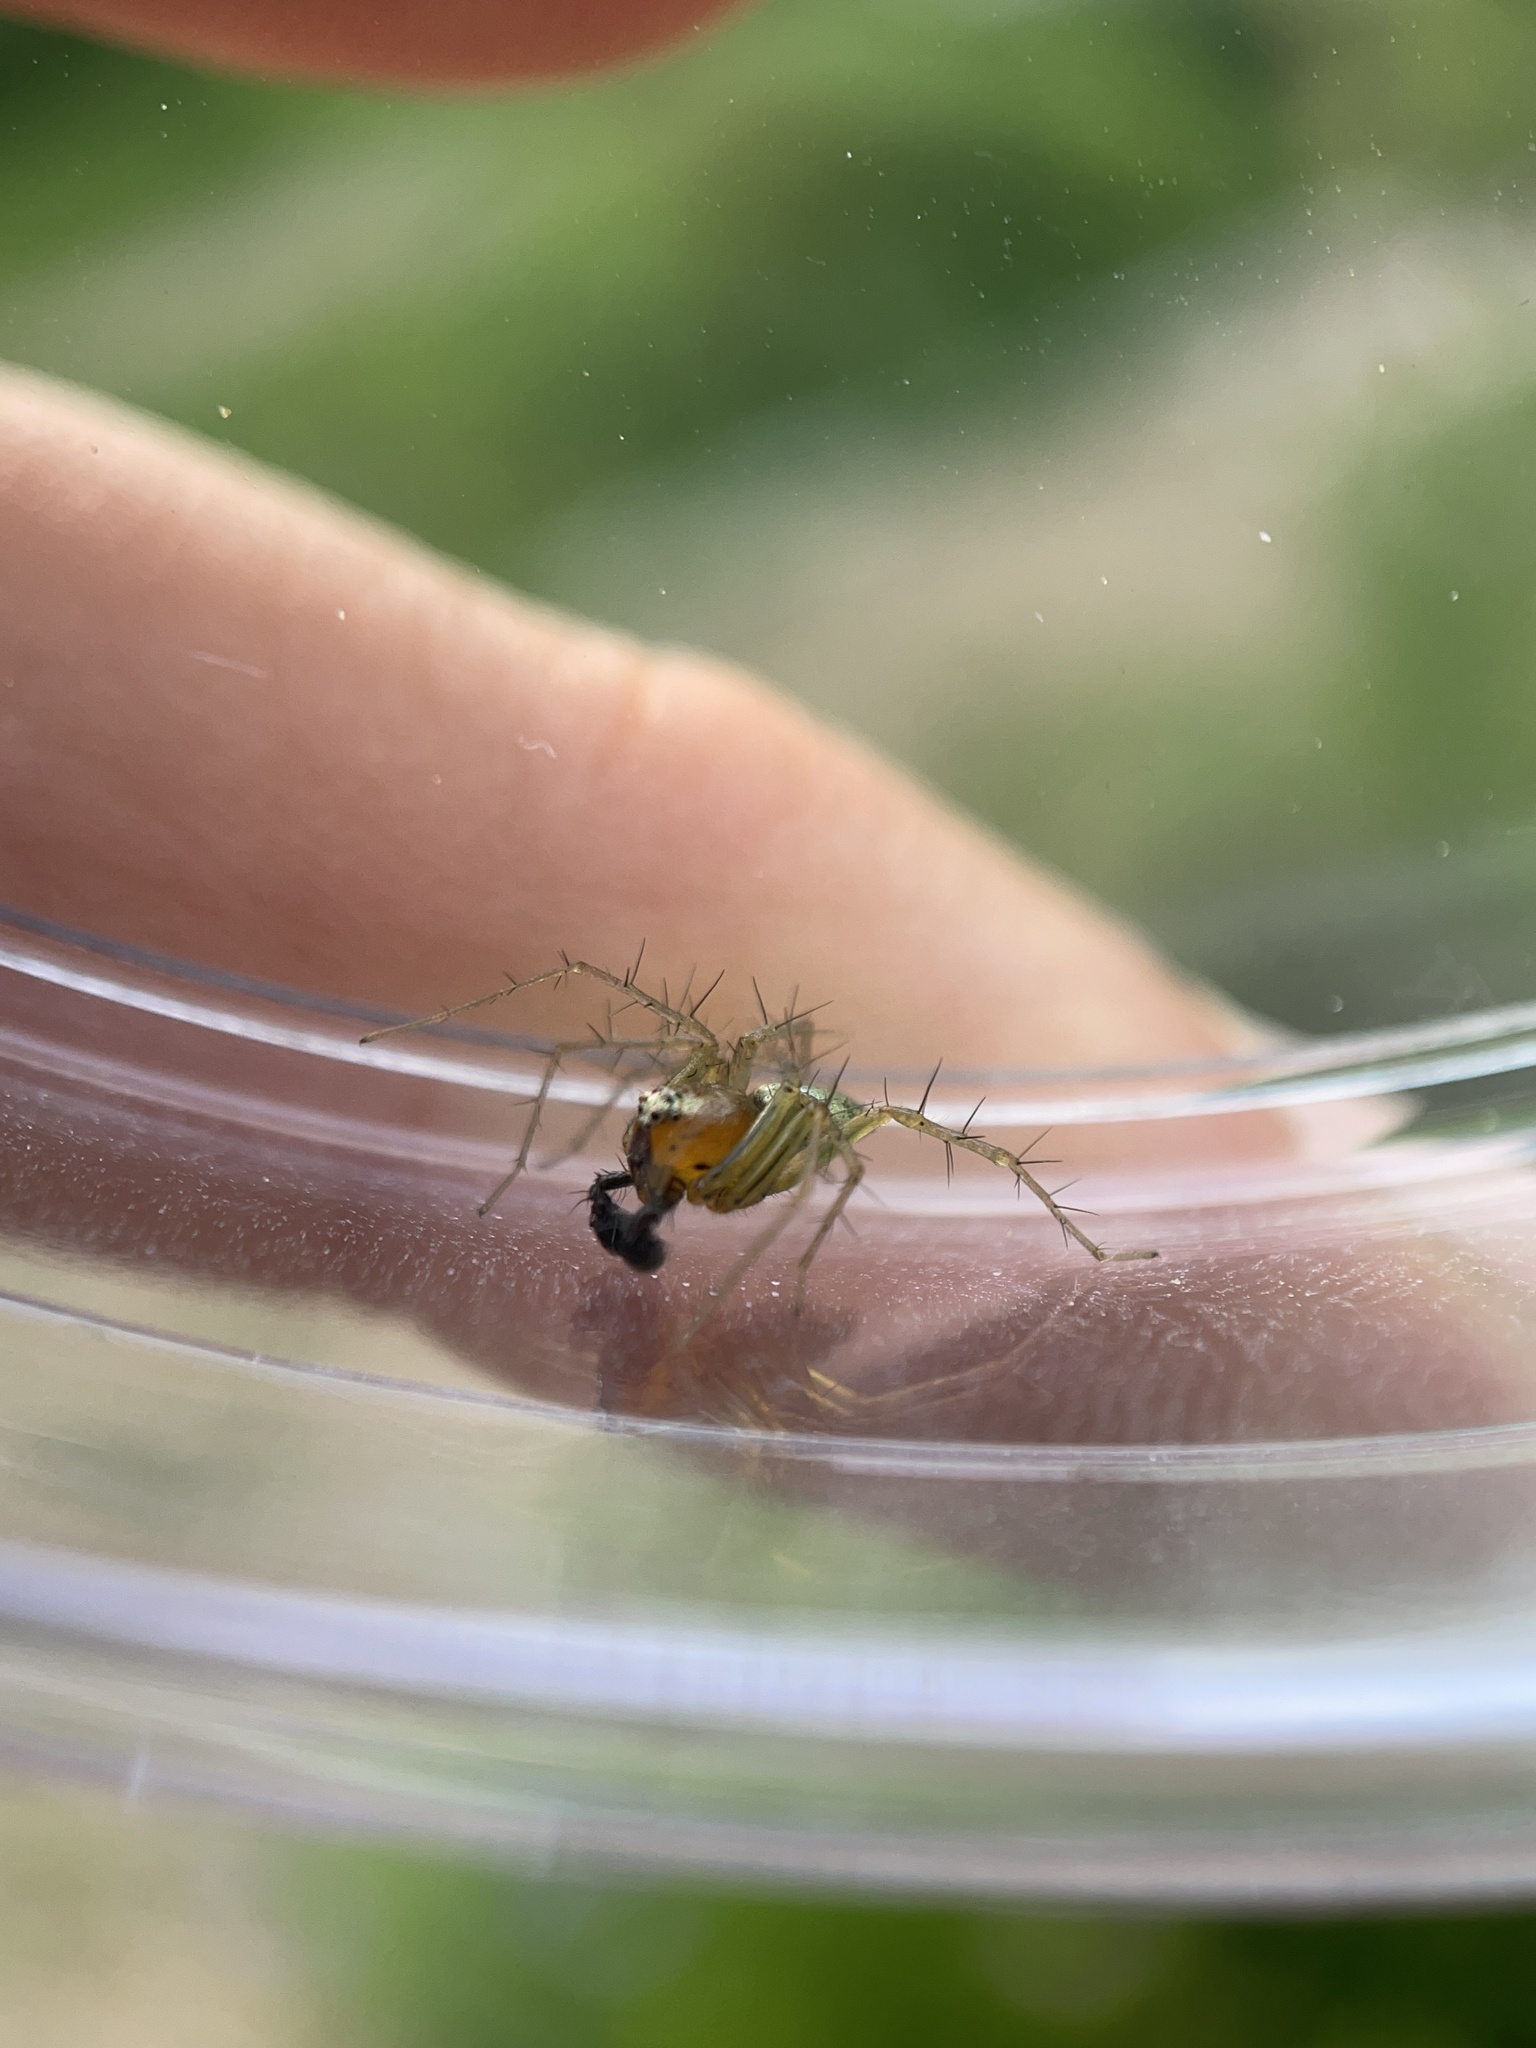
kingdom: Animalia
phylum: Arthropoda
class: Arachnida
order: Araneae
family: Oxyopidae
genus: Oxyopes
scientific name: Oxyopes salticus
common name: Lynx spiders
